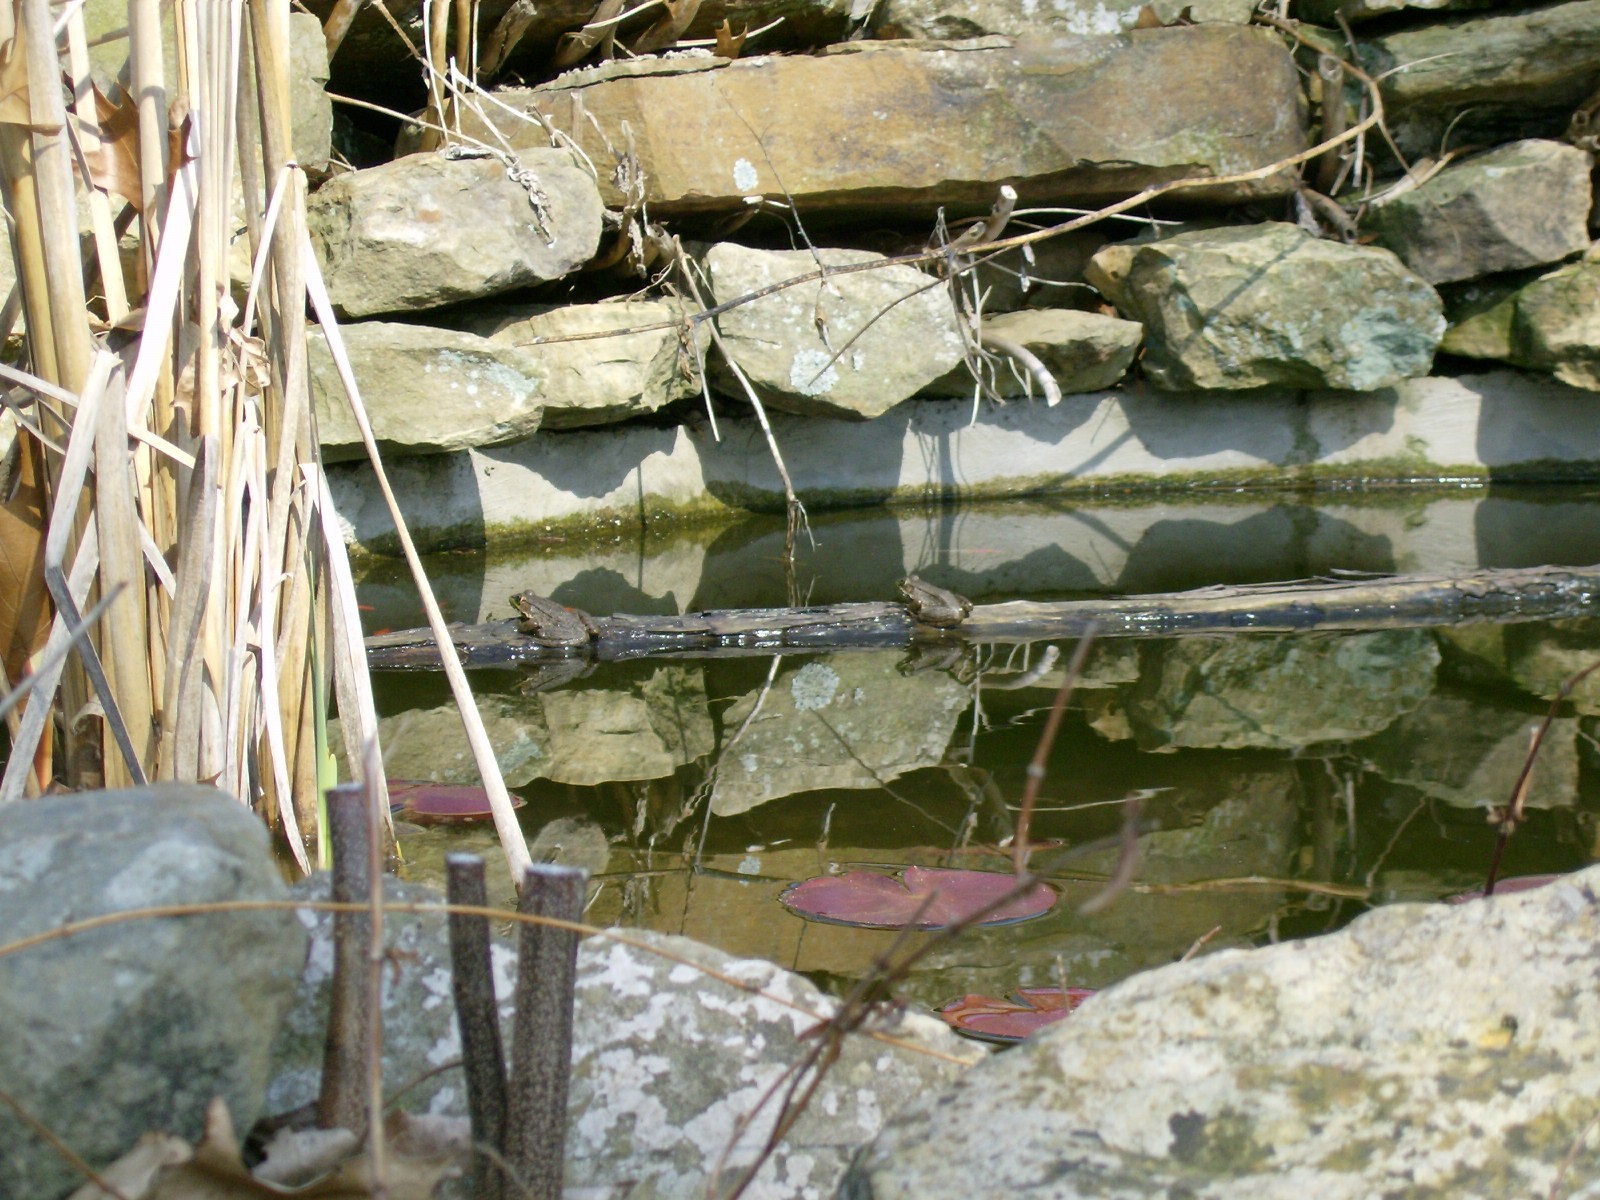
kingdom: Animalia
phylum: Chordata
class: Amphibia
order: Anura
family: Ranidae
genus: Lithobates
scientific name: Lithobates clamitans
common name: Green frog
